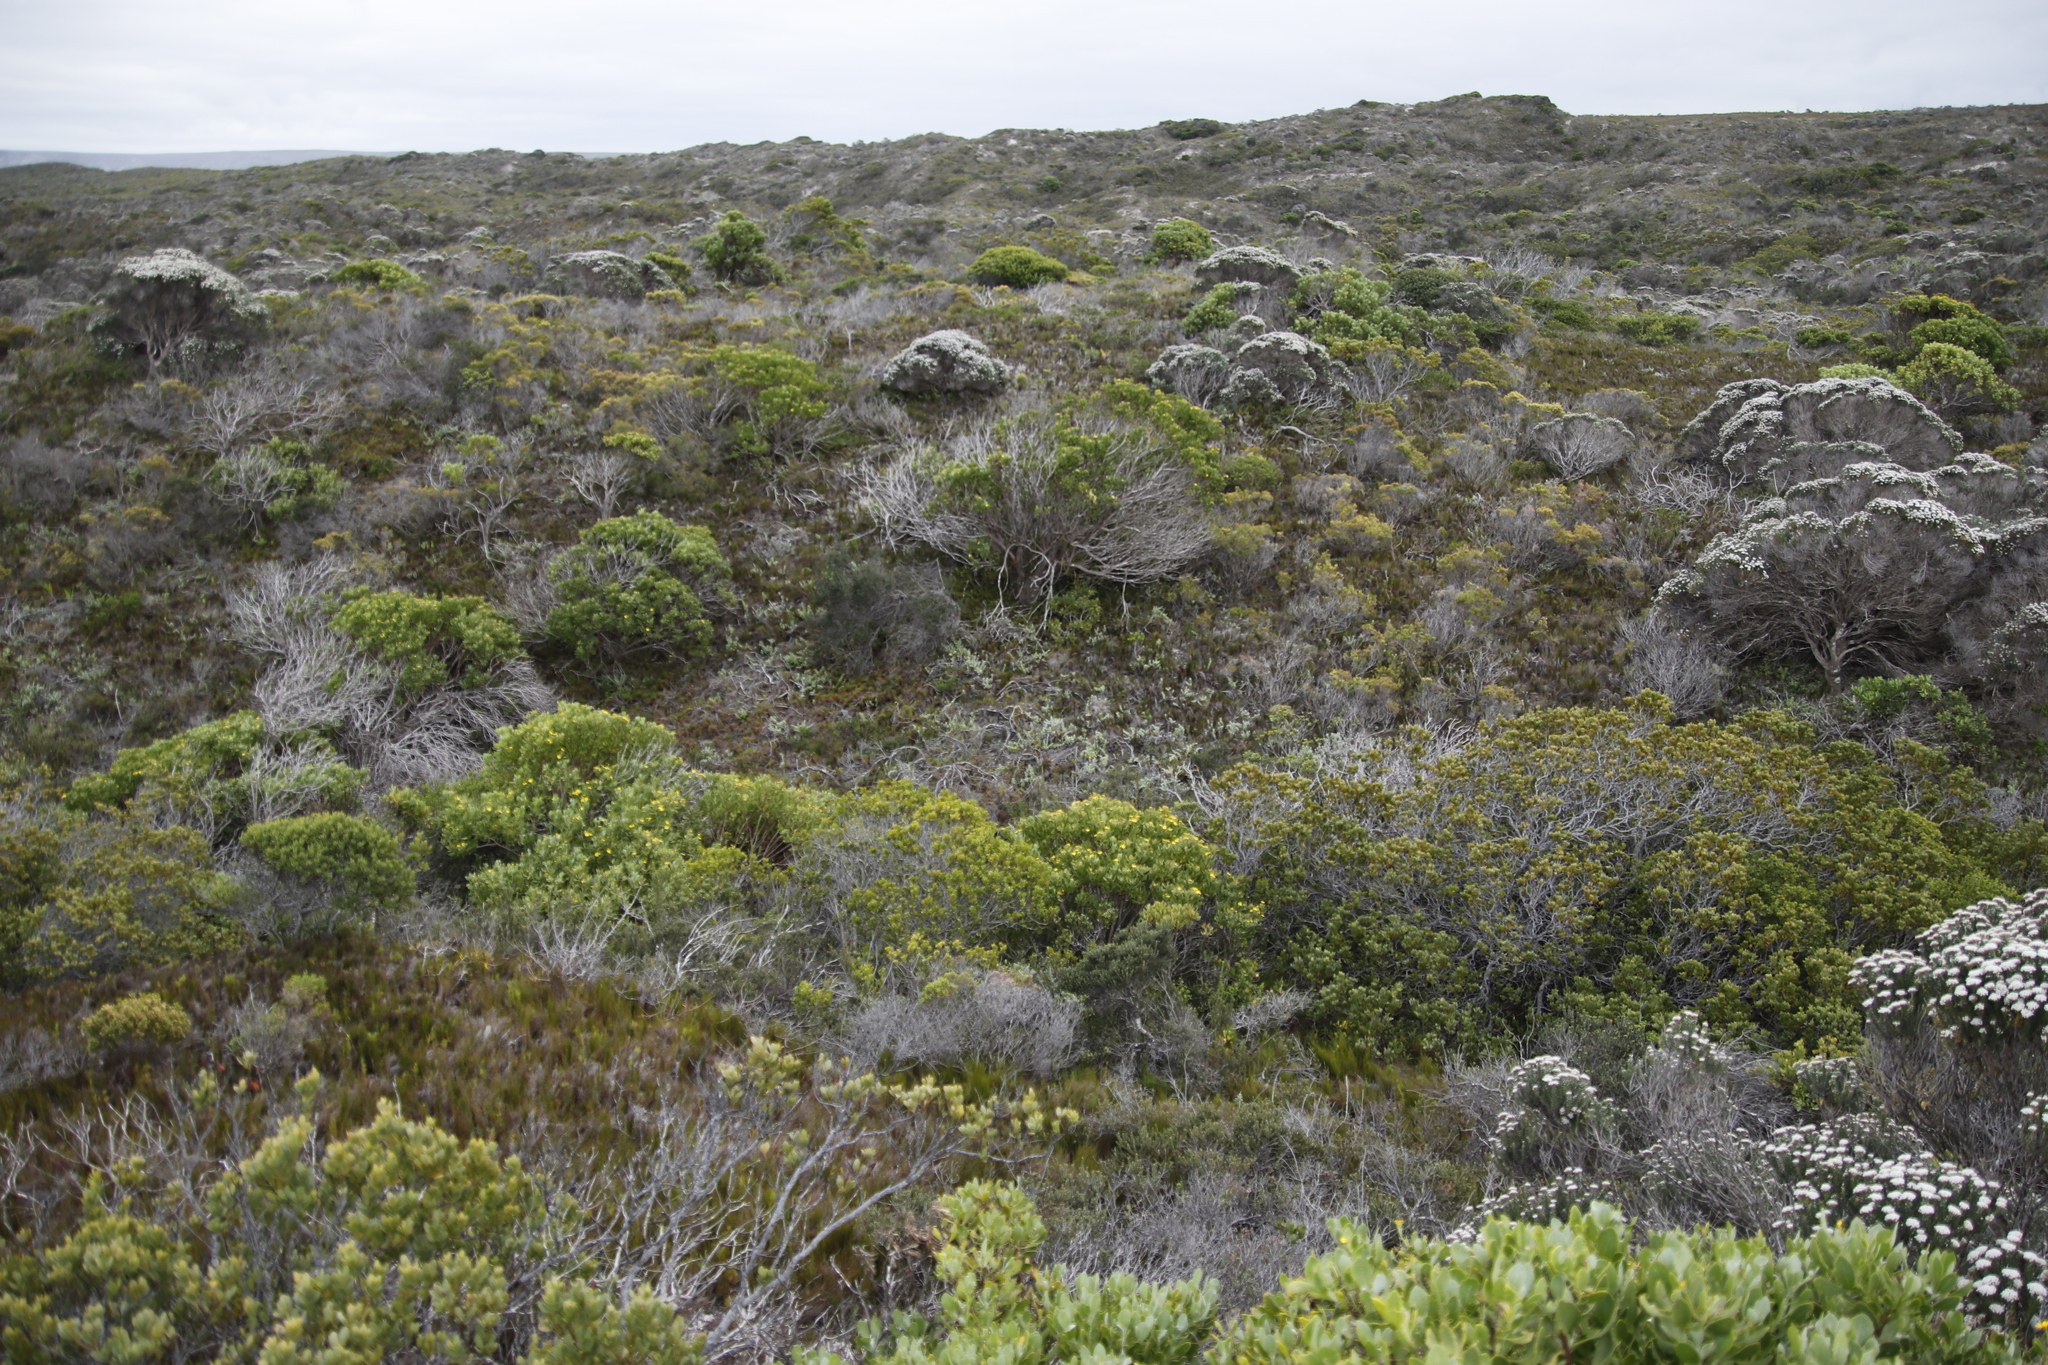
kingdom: Plantae
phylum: Tracheophyta
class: Magnoliopsida
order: Asterales
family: Asteraceae
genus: Osteospermum
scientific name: Osteospermum moniliferum
